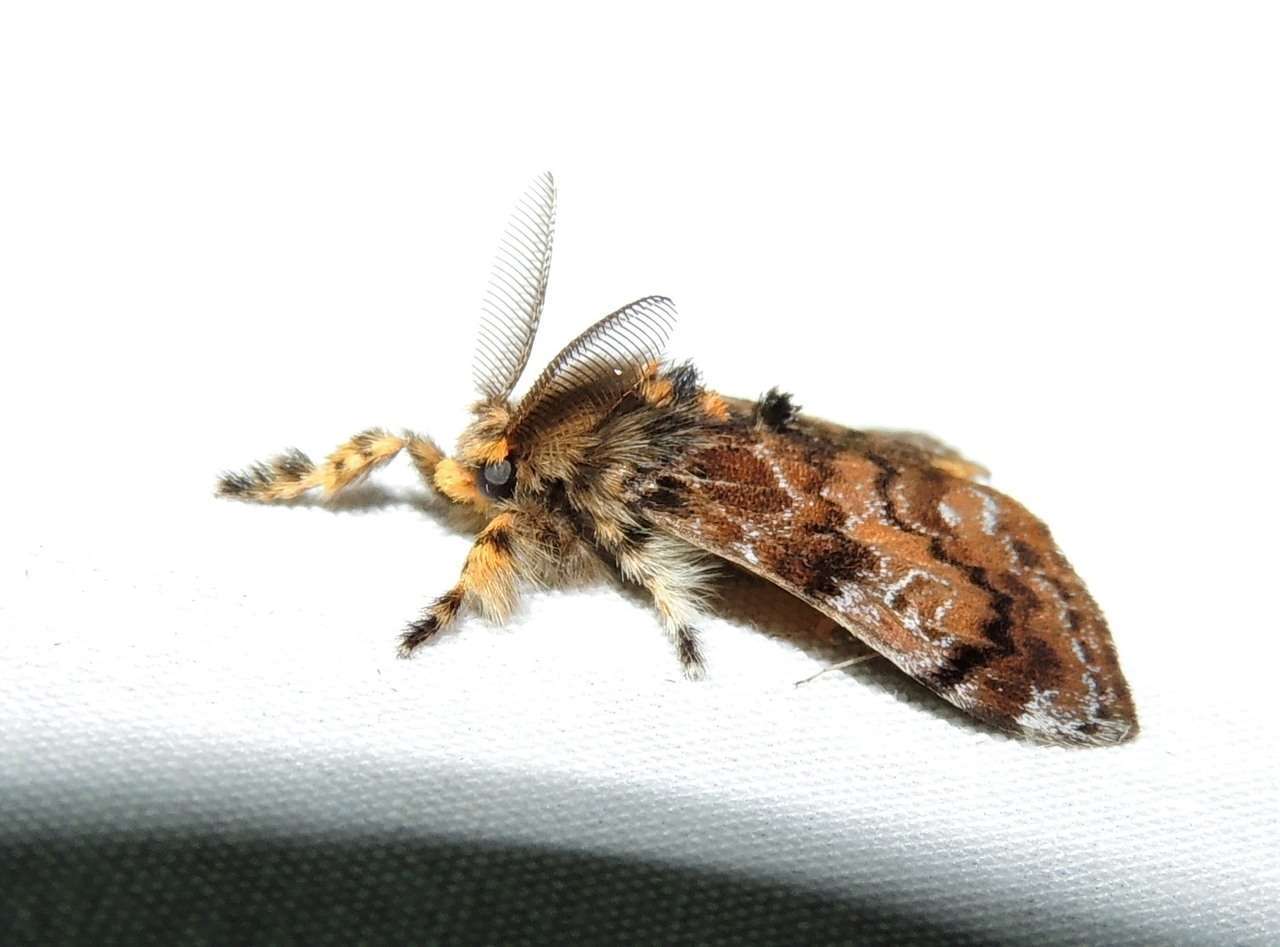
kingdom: Animalia
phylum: Arthropoda
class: Insecta
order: Lepidoptera
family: Erebidae
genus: Orgyia
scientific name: Orgyia
